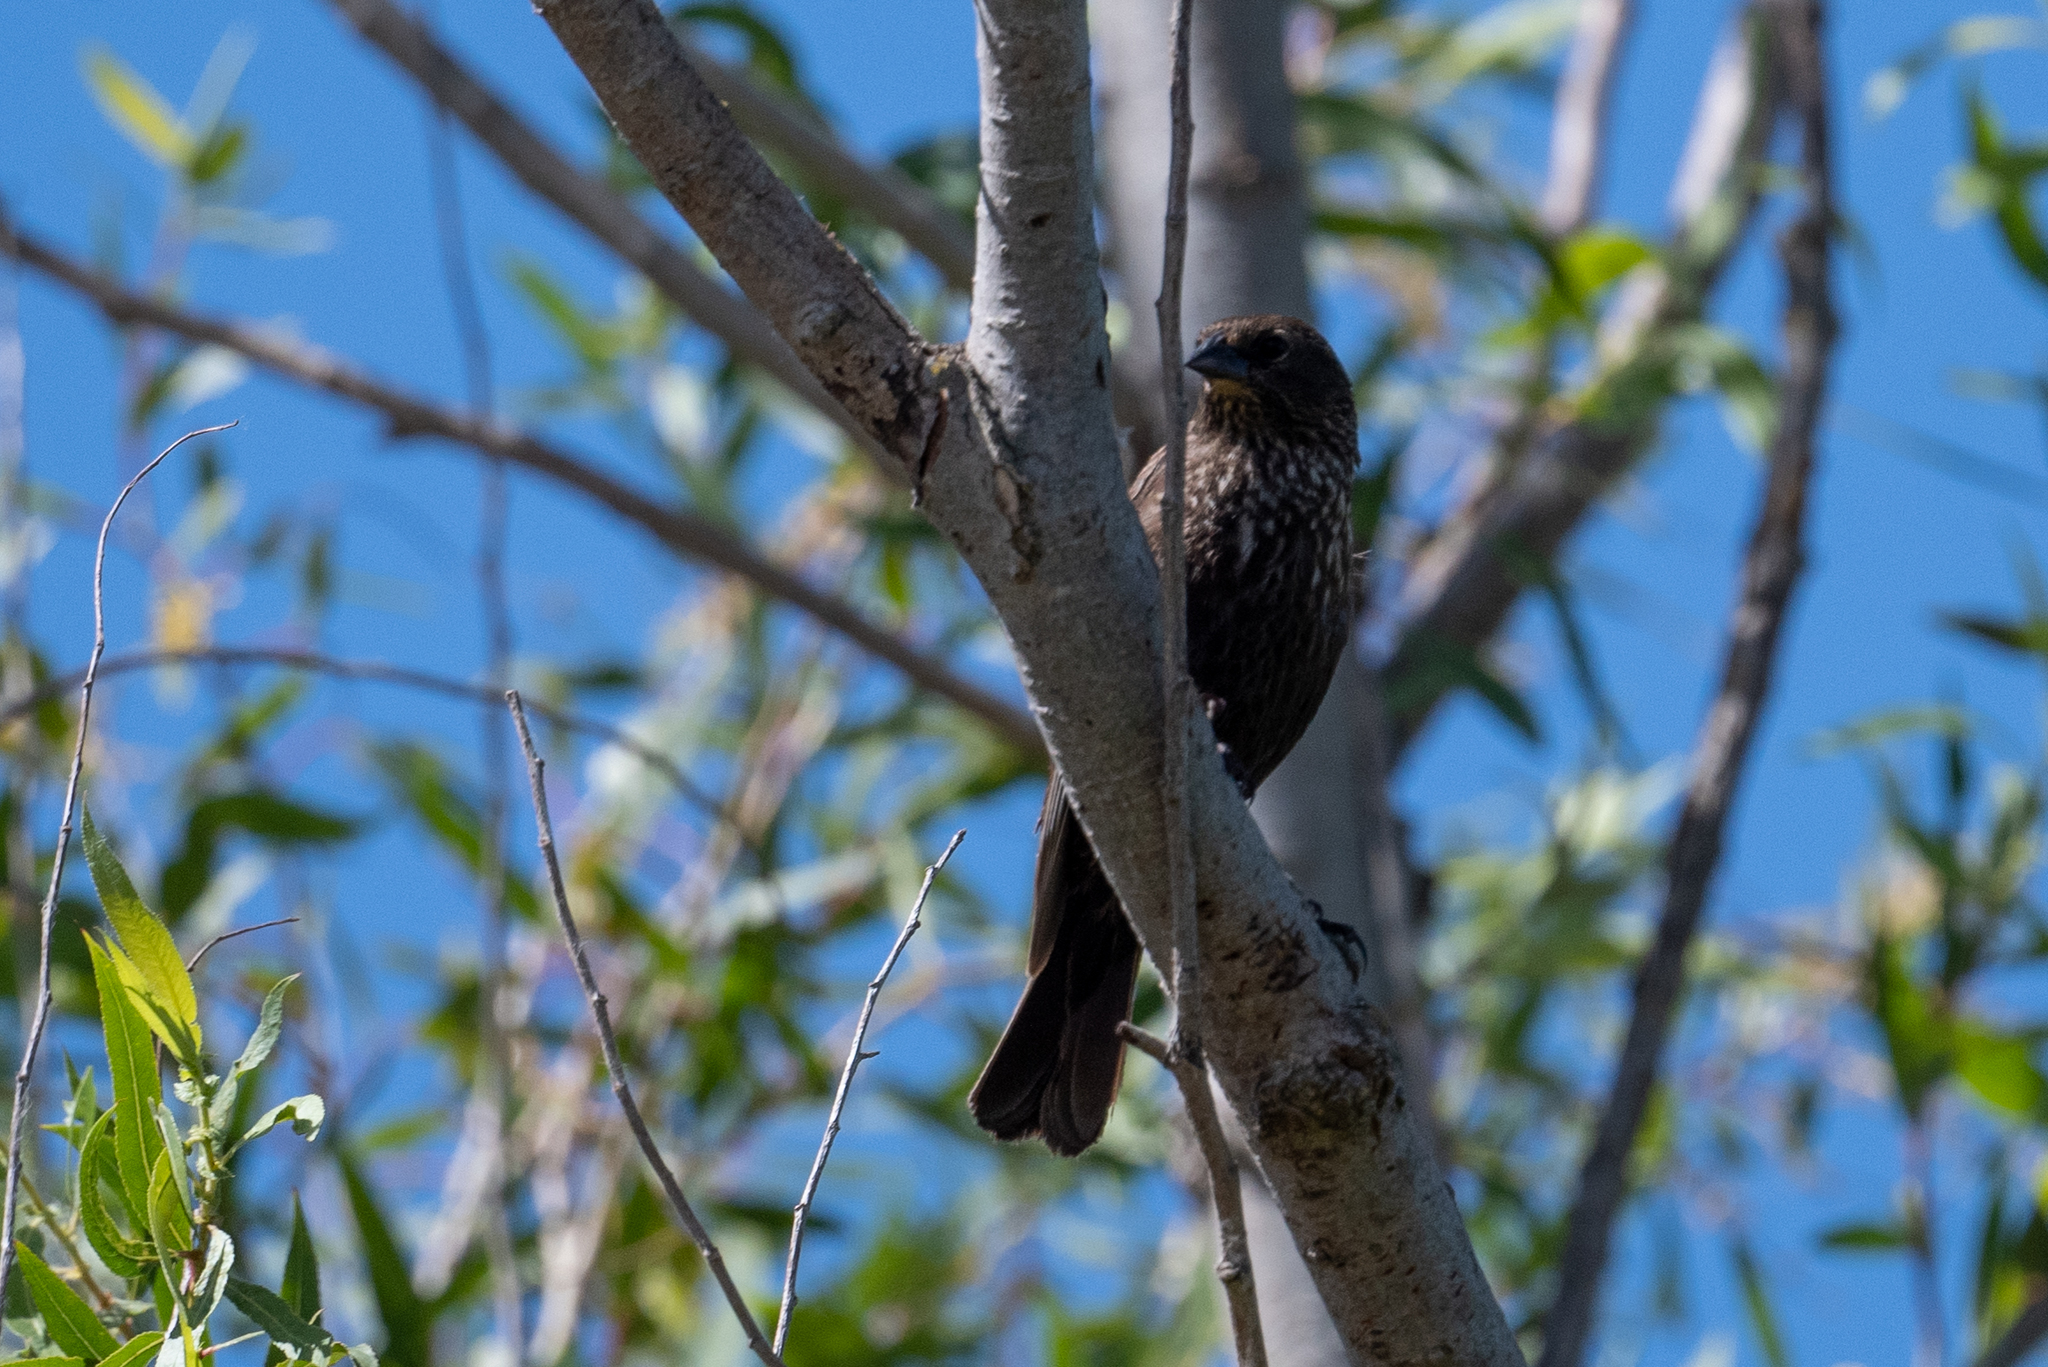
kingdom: Animalia
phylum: Chordata
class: Aves
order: Passeriformes
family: Icteridae
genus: Agelaius
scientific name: Agelaius phoeniceus
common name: Red-winged blackbird
